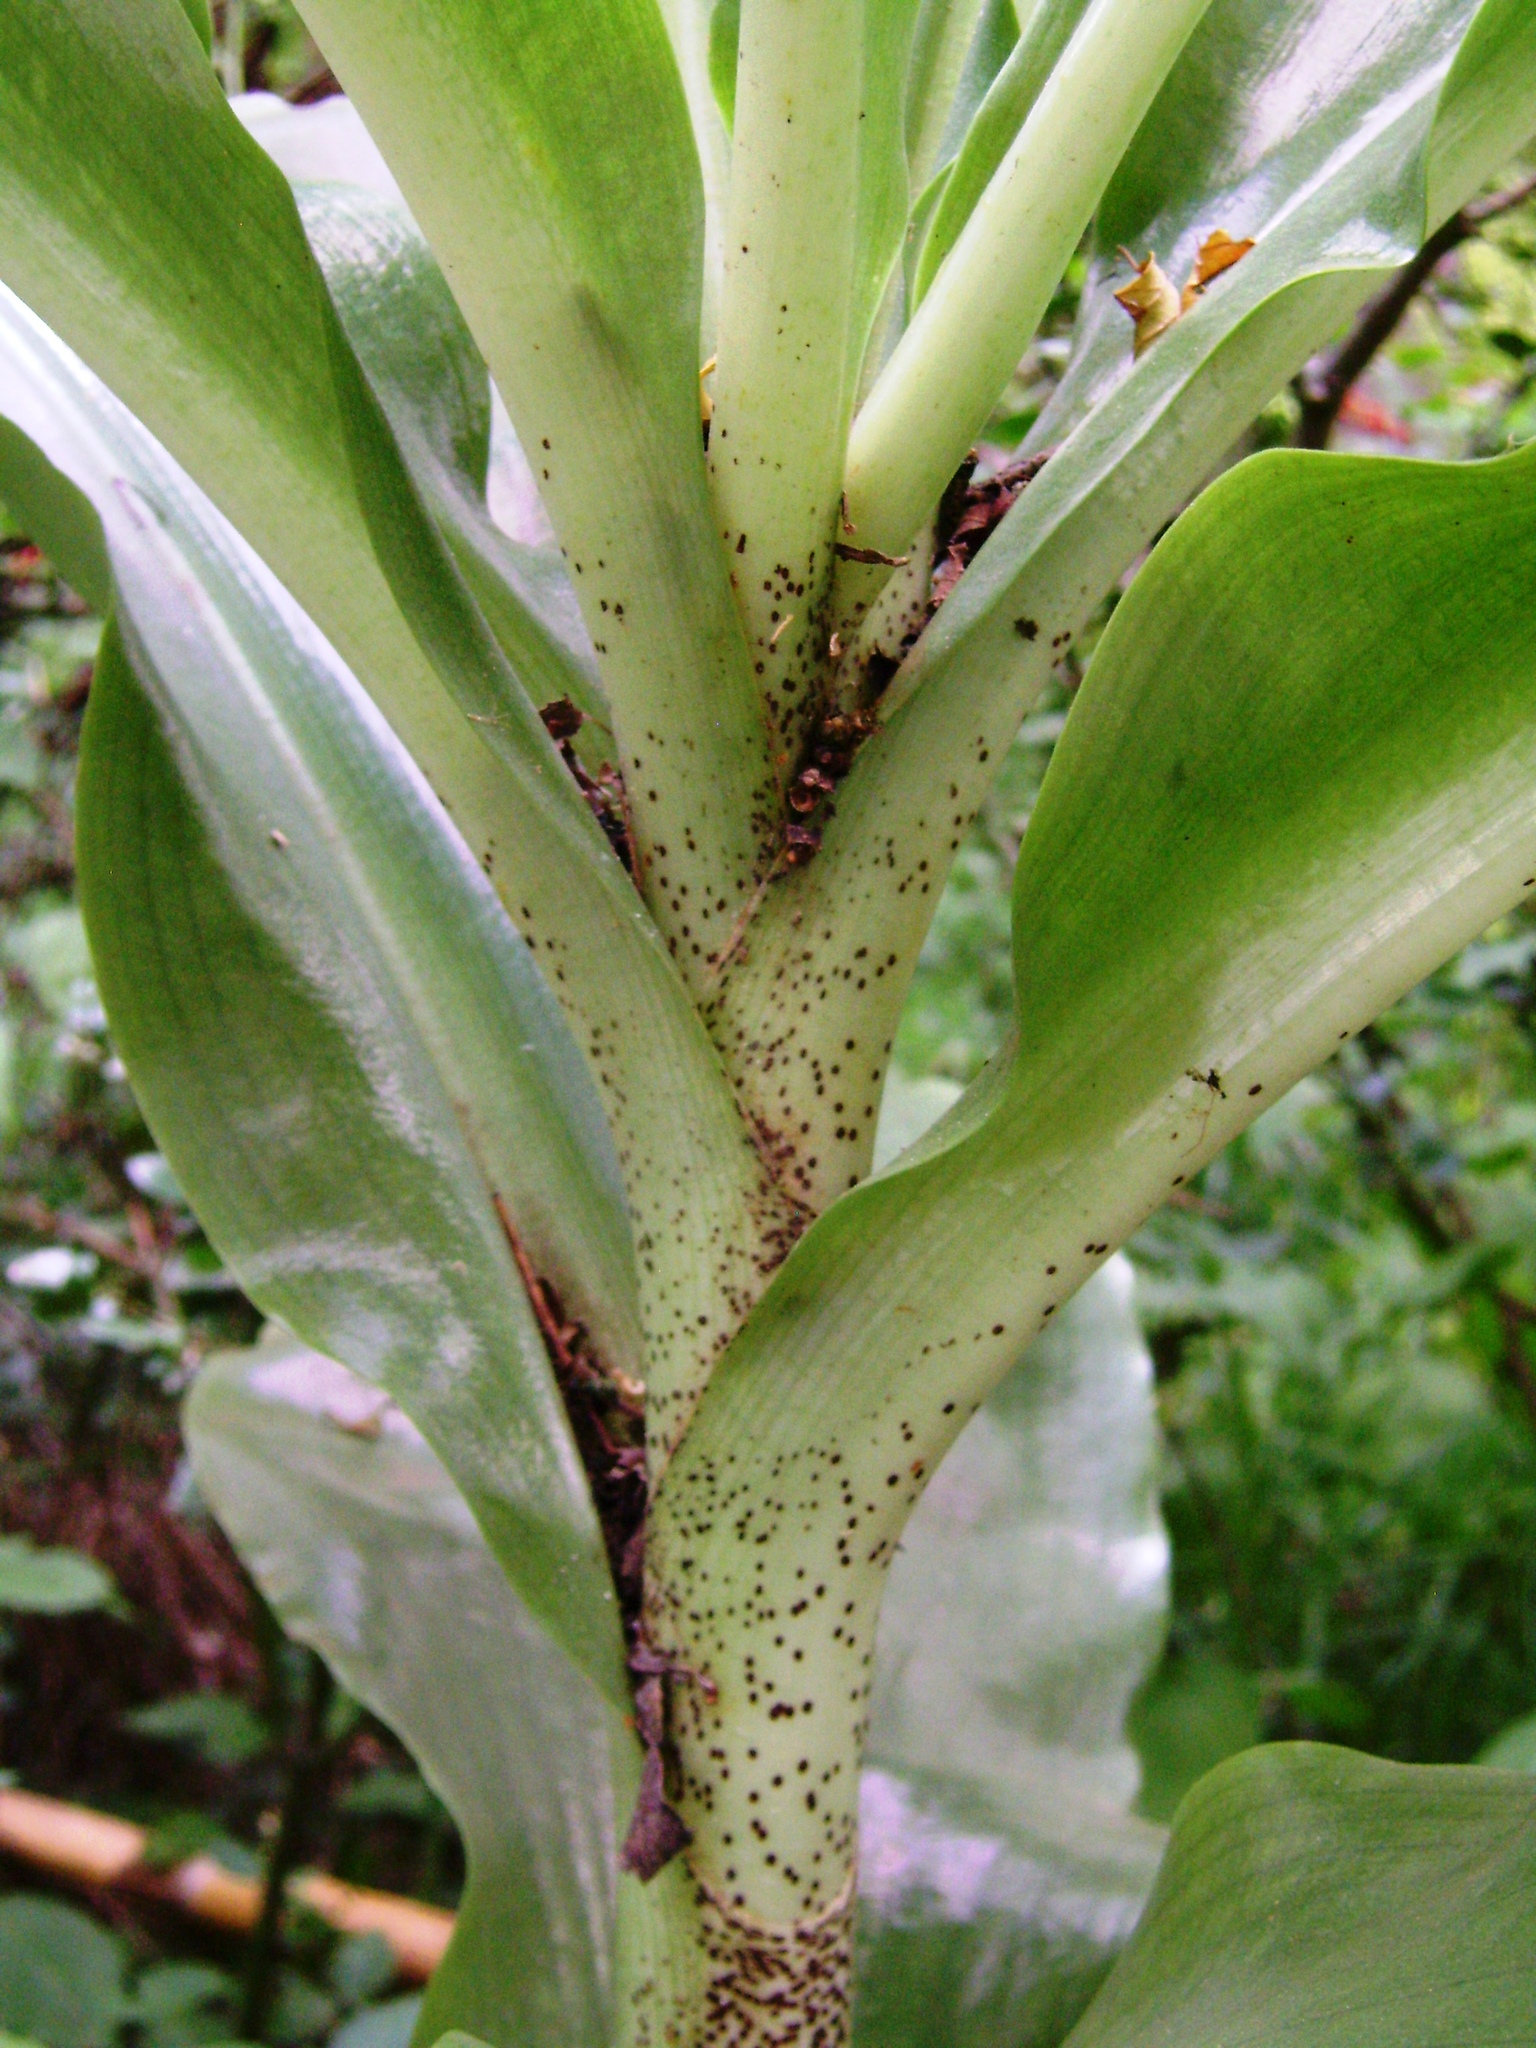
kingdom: Plantae
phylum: Tracheophyta
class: Liliopsida
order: Asparagales
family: Amaryllidaceae
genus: Scadoxus
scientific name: Scadoxus puniceus
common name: Royal-paintbrush
